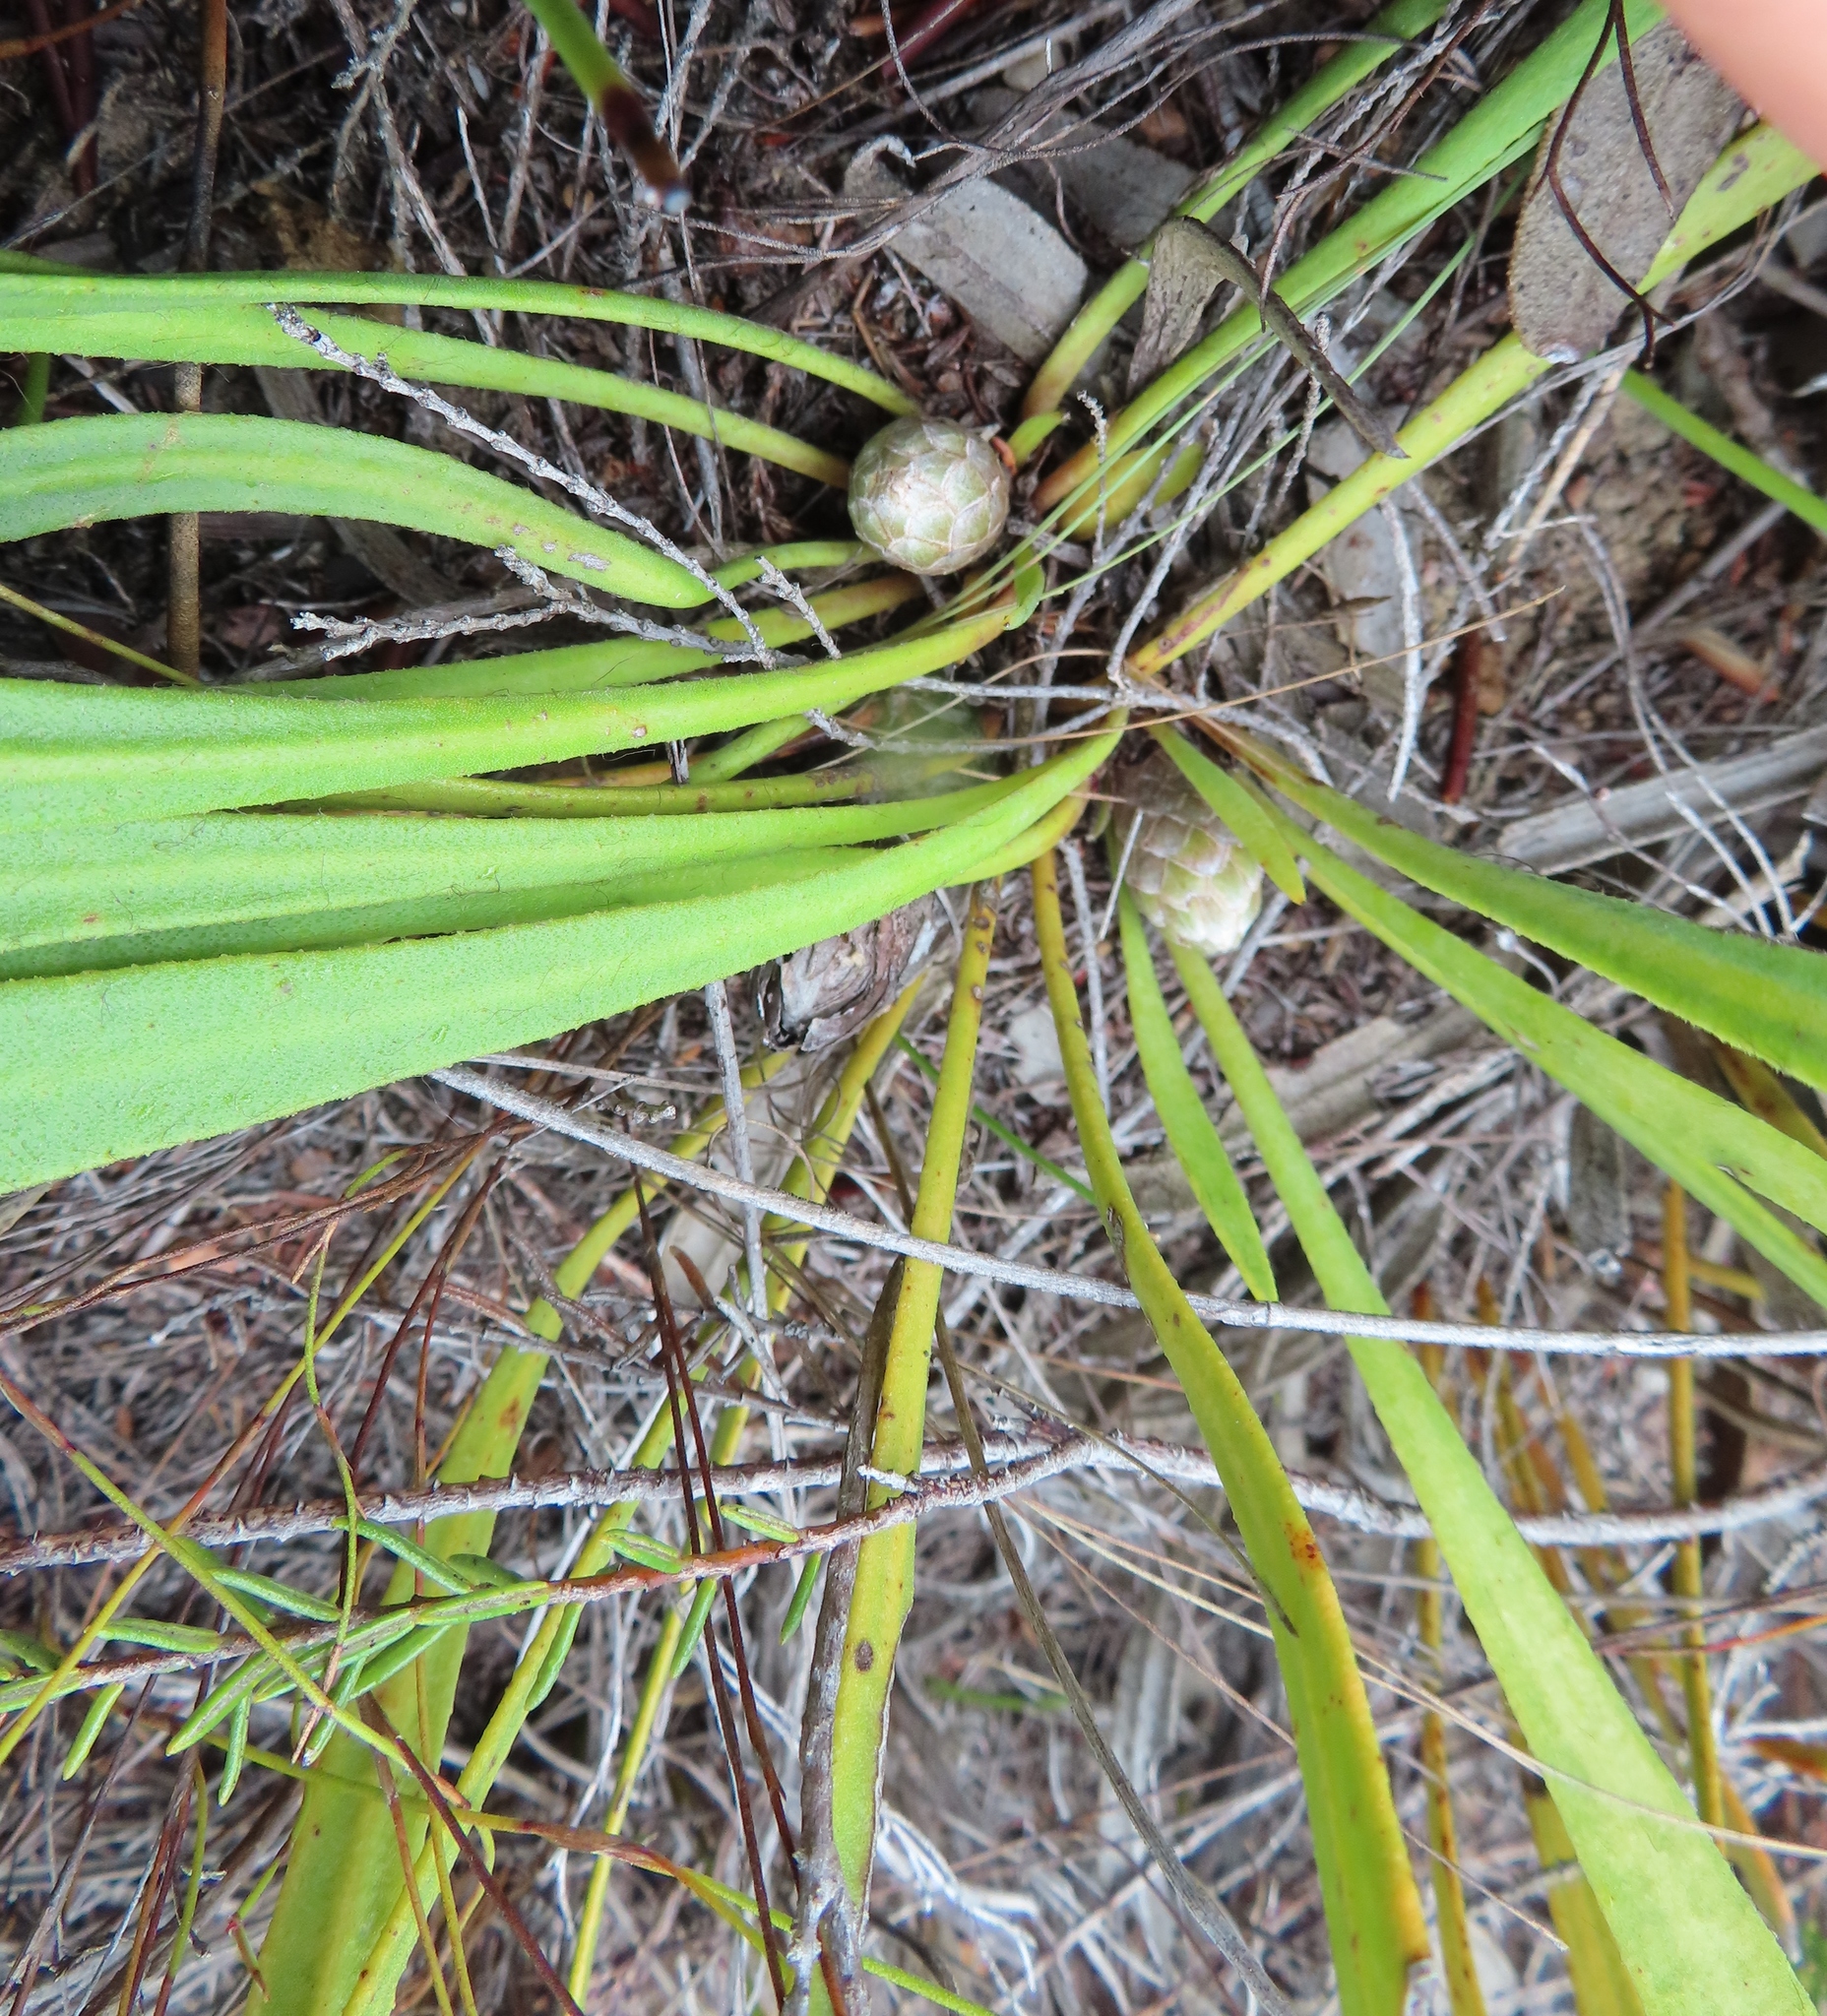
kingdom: Plantae
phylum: Tracheophyta
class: Magnoliopsida
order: Proteales
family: Proteaceae
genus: Protea
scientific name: Protea aspera
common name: Rough-leaf sugarbush
